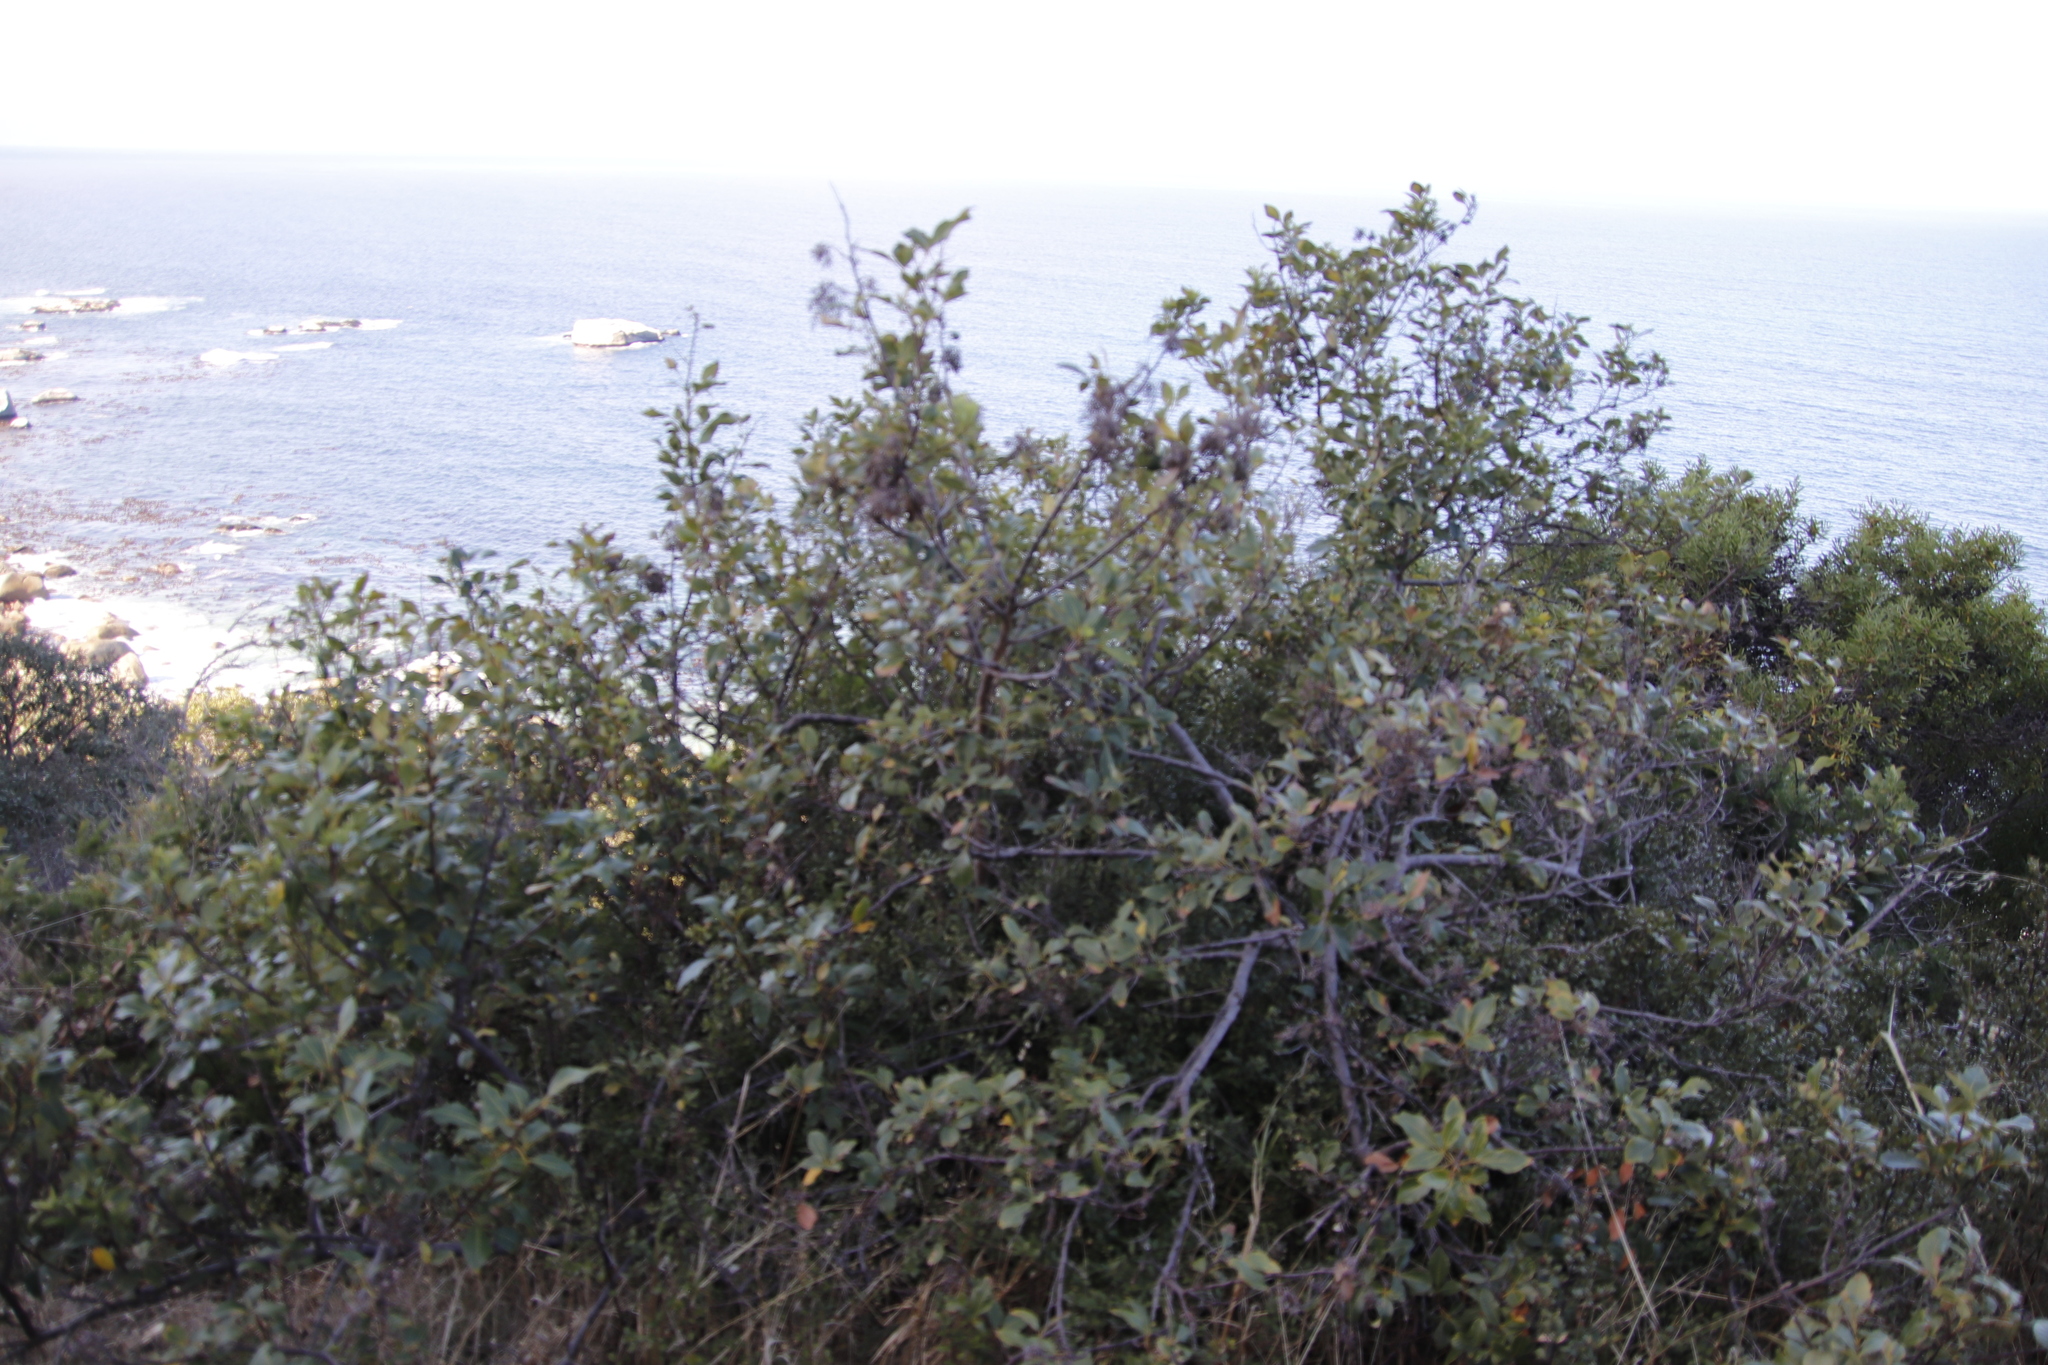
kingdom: Plantae
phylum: Tracheophyta
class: Magnoliopsida
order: Sapindales
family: Anacardiaceae
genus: Searsia
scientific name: Searsia tomentosa
